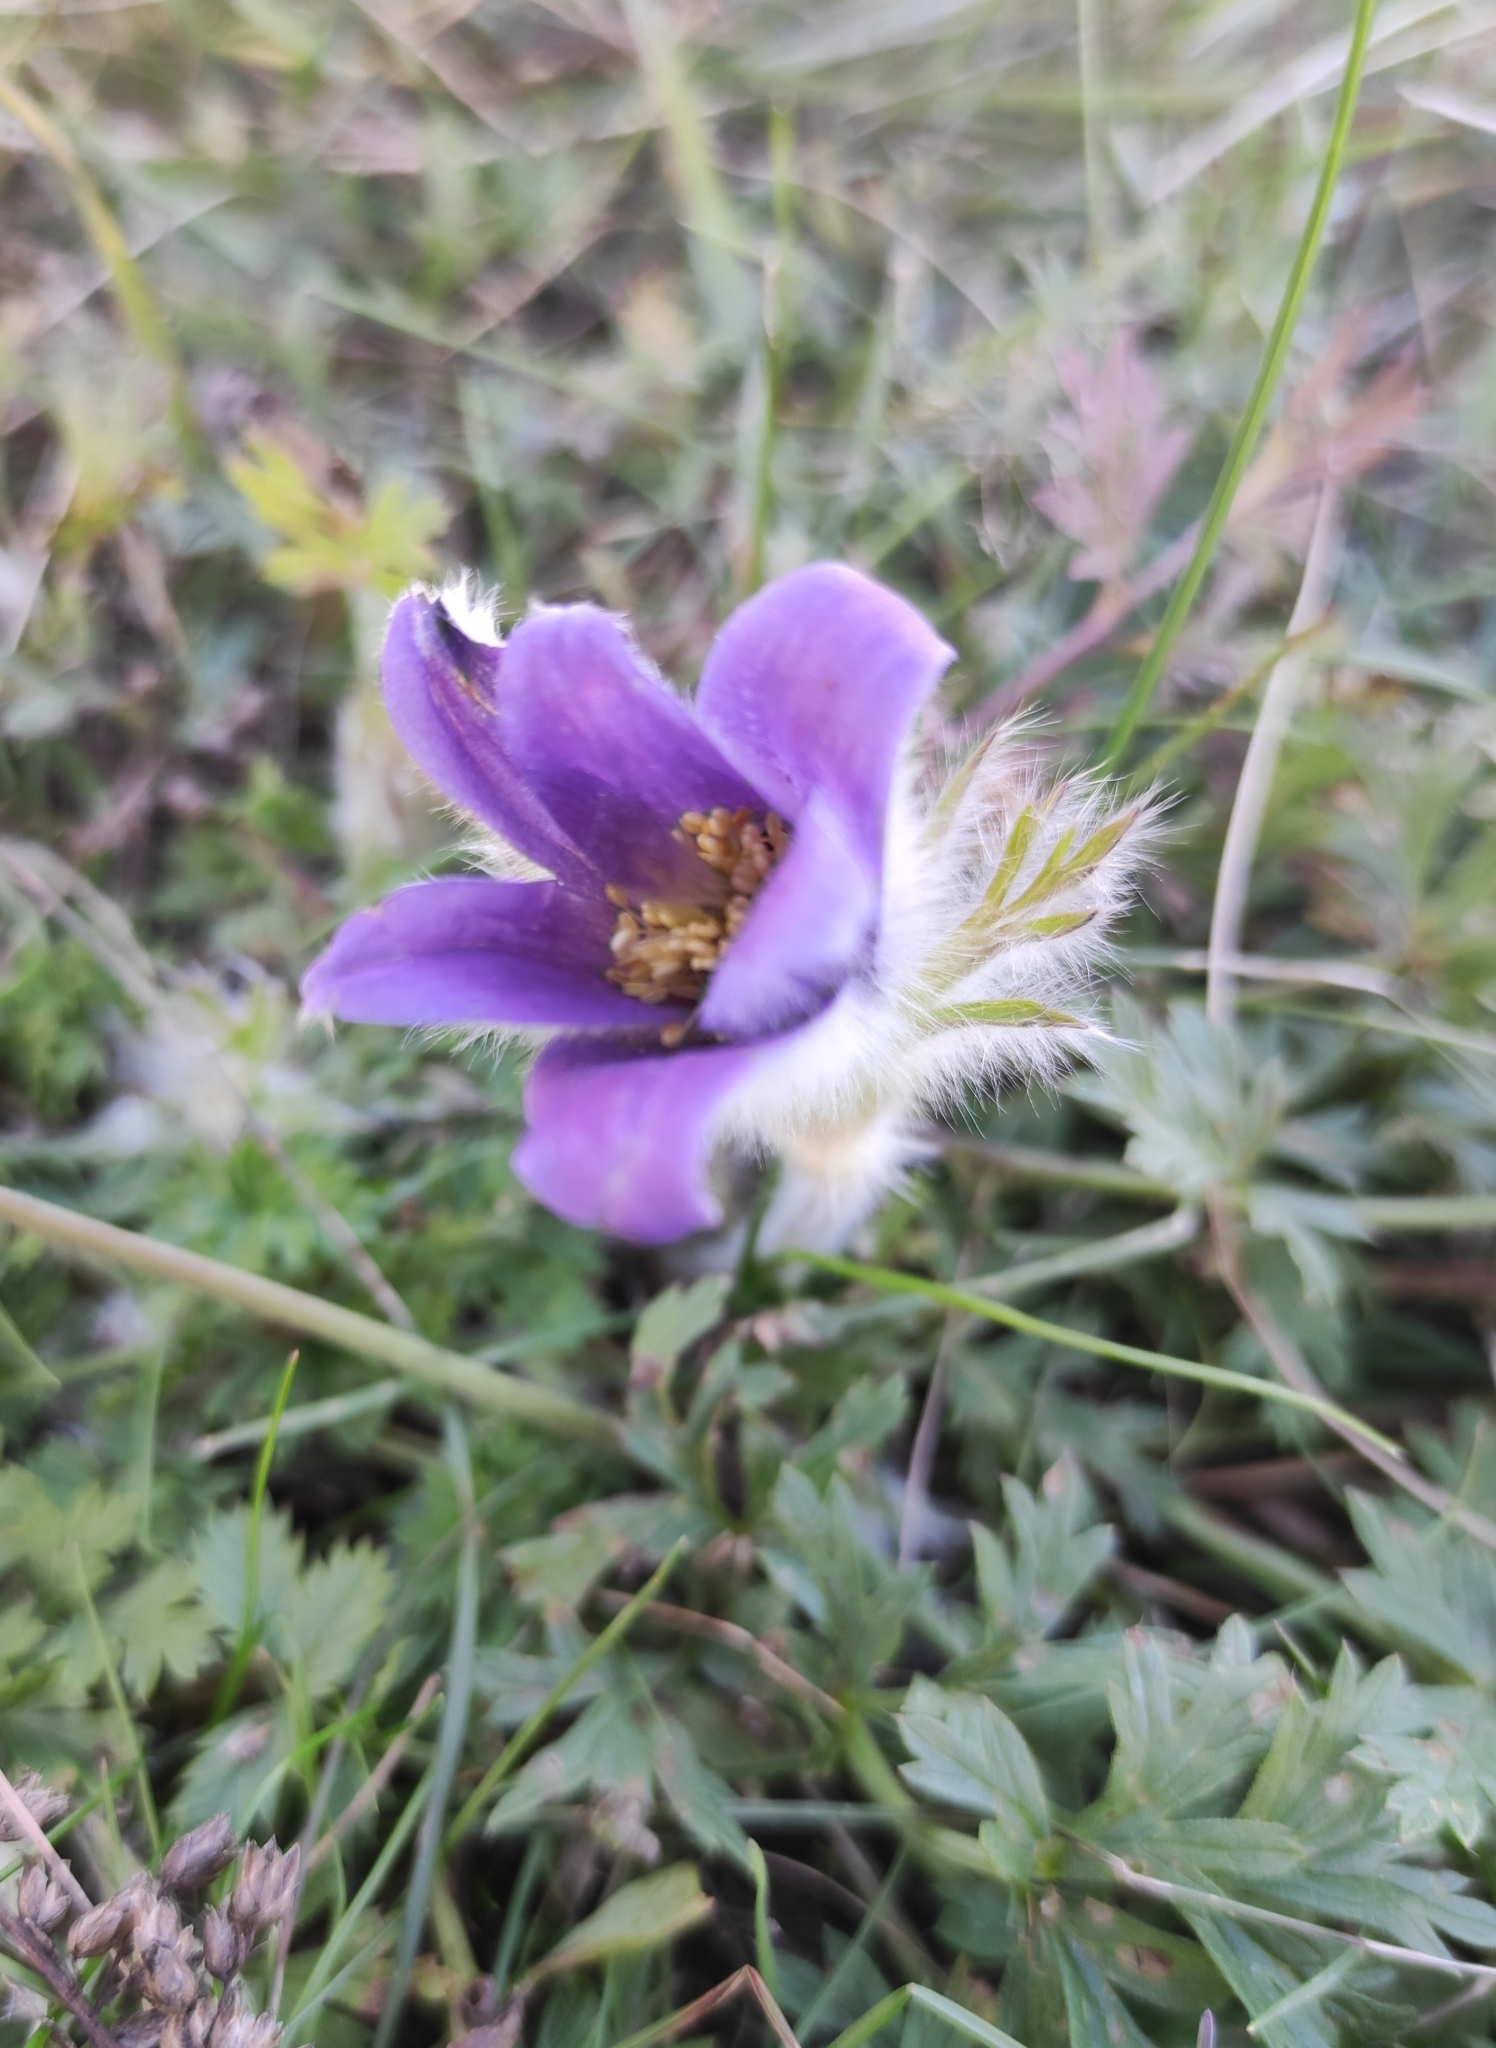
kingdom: Plantae
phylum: Tracheophyta
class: Magnoliopsida
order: Ranunculales
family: Ranunculaceae
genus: Pulsatilla
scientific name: Pulsatilla ambigua
